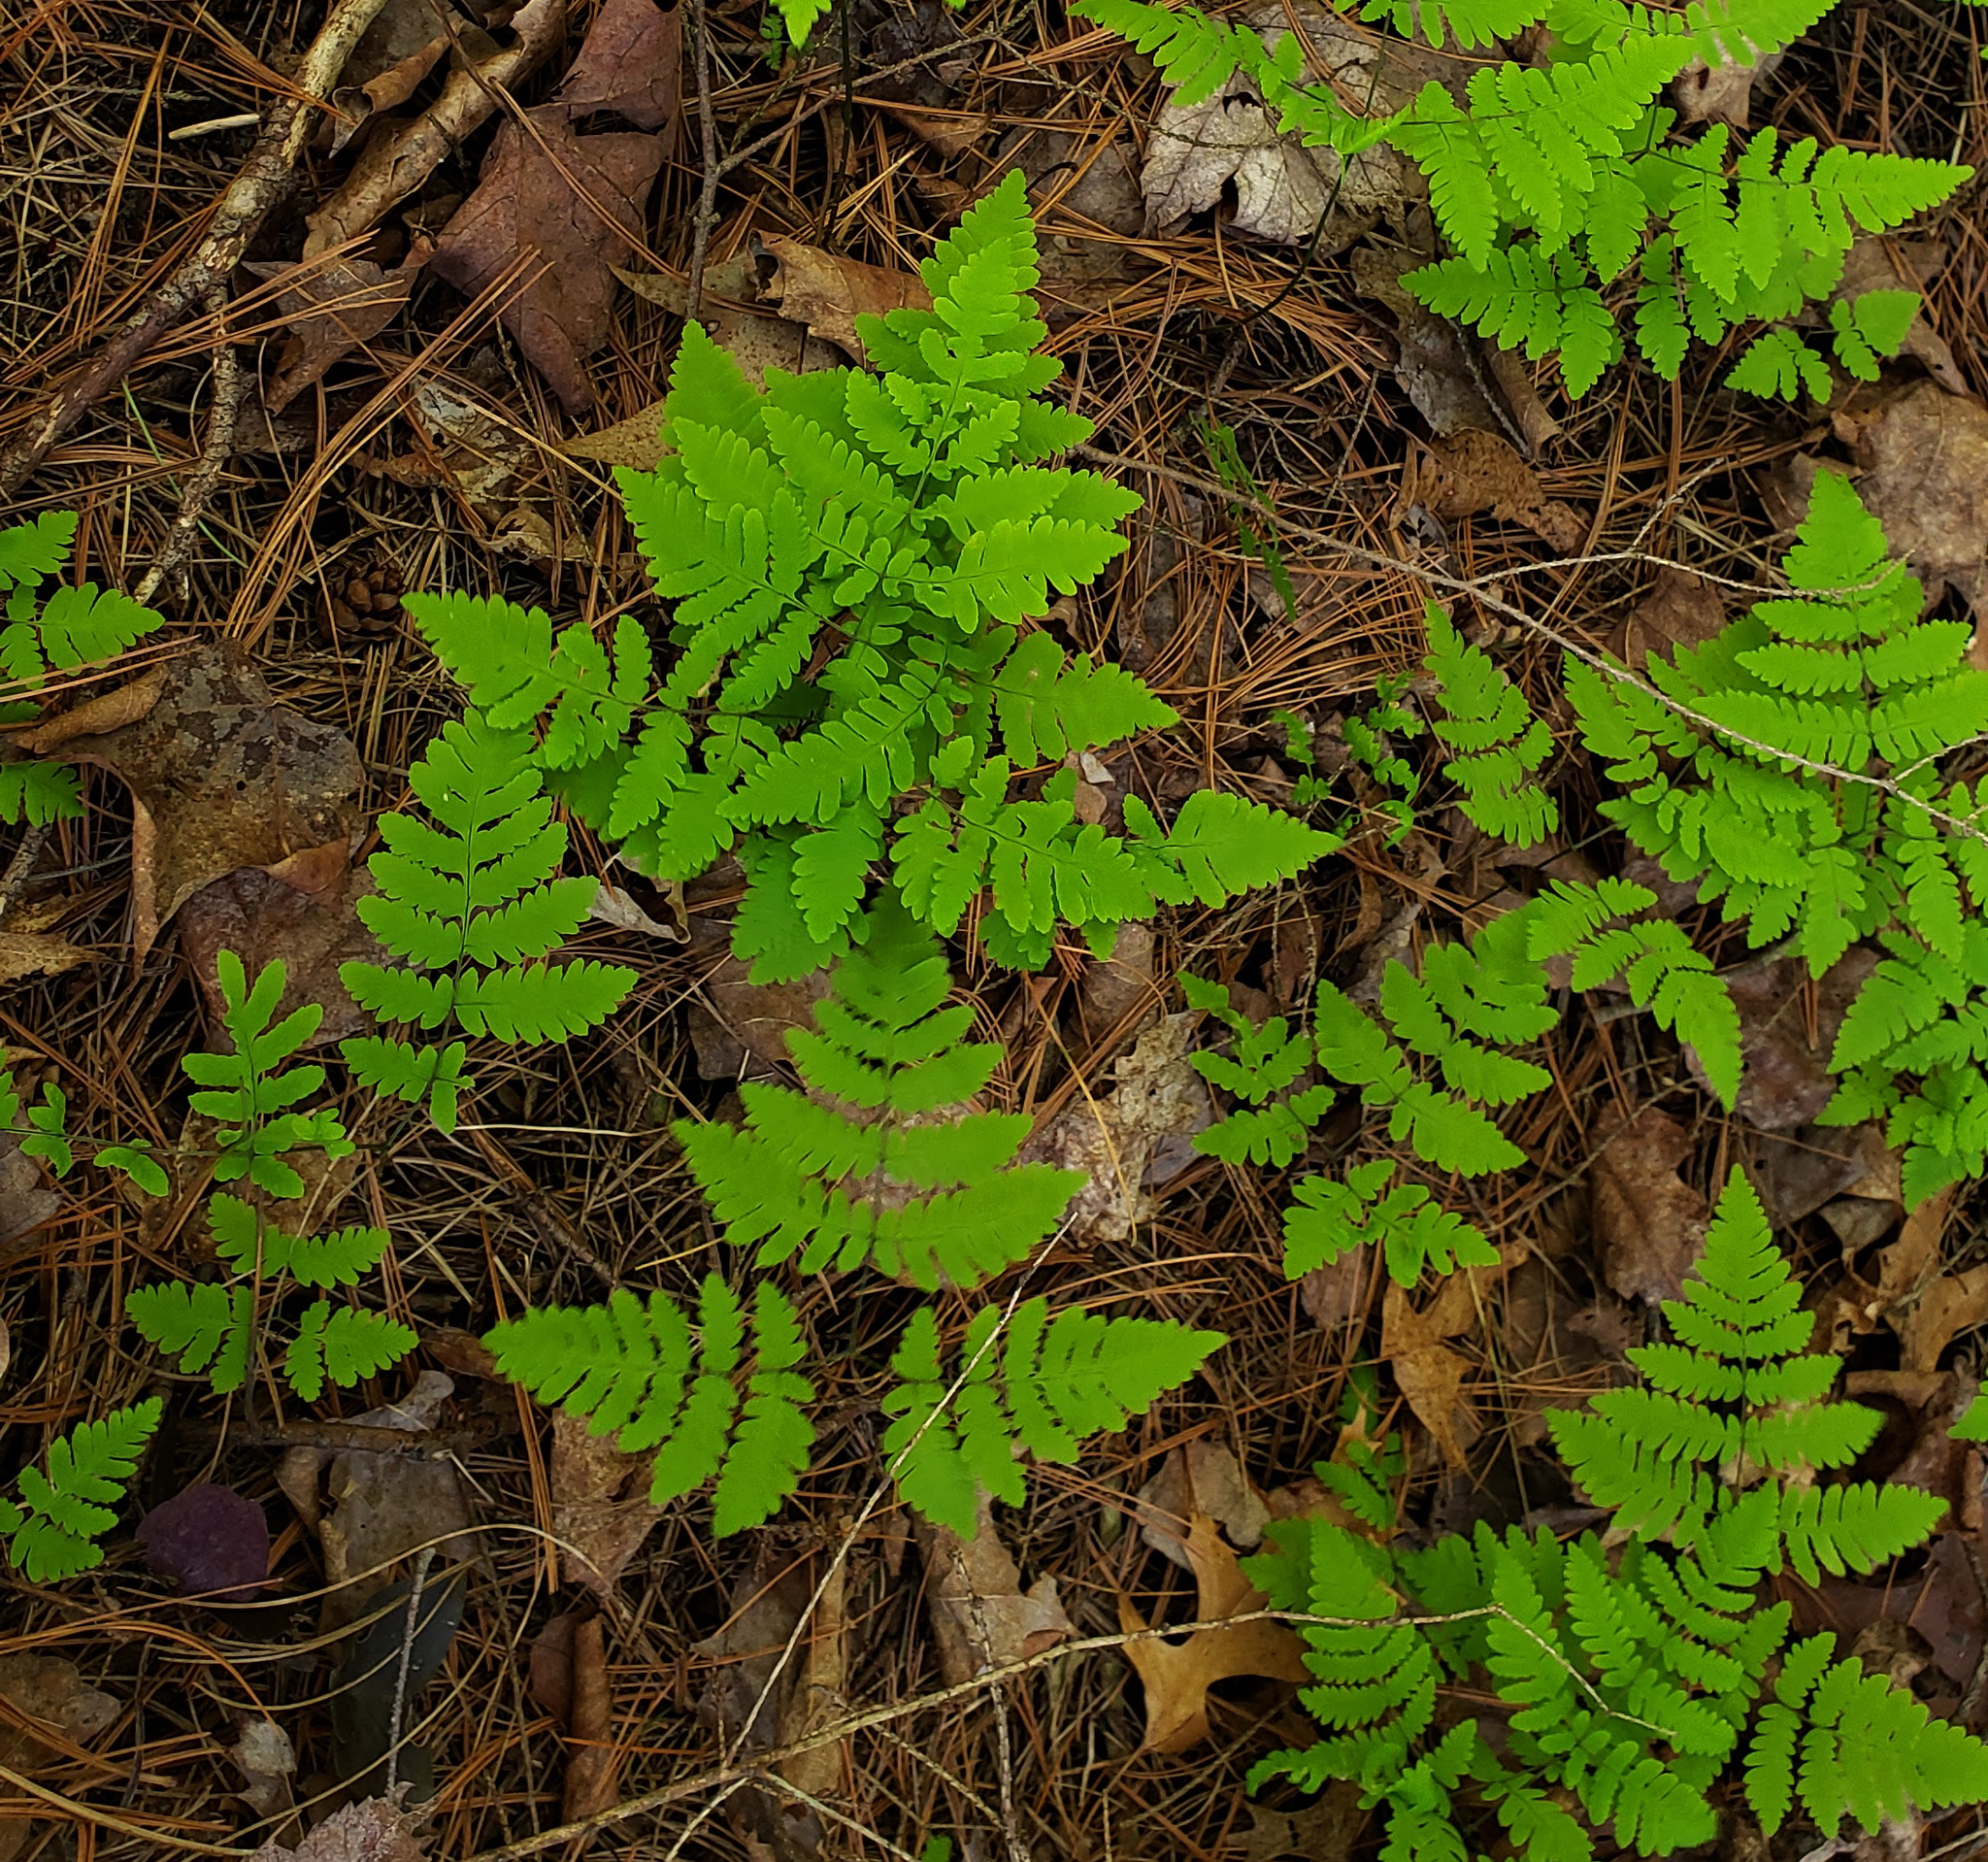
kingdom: Plantae
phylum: Tracheophyta
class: Polypodiopsida
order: Polypodiales
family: Cystopteridaceae
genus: Gymnocarpium
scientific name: Gymnocarpium dryopteris
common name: Oak fern
